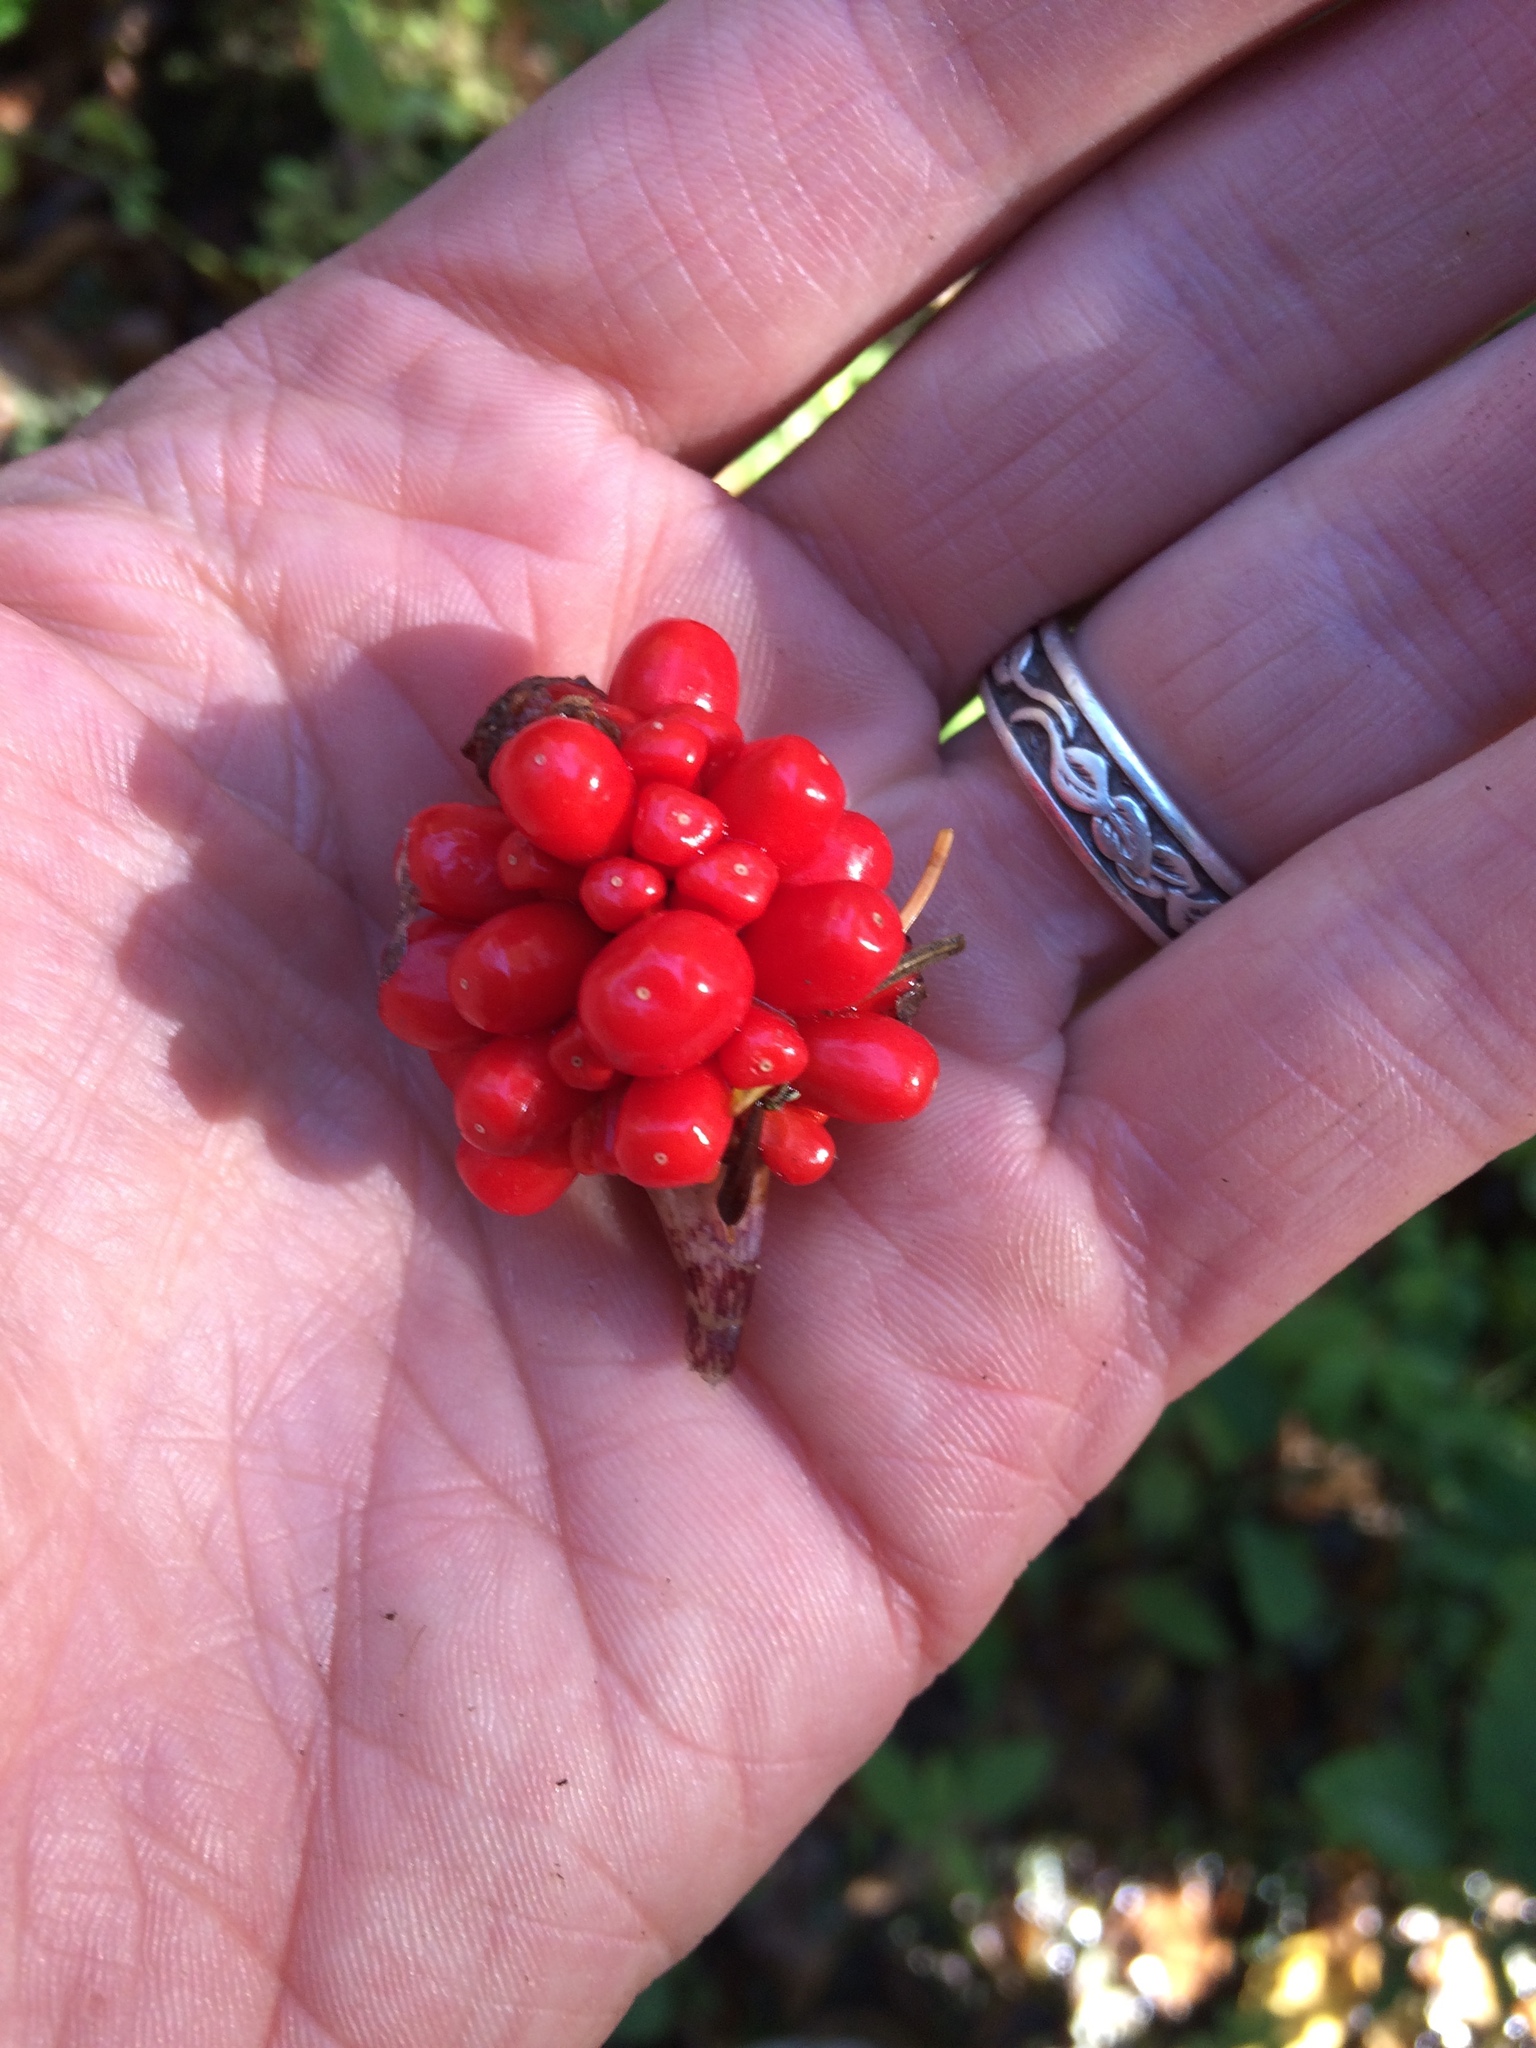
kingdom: Plantae
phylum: Tracheophyta
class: Liliopsida
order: Alismatales
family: Araceae
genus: Arisaema
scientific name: Arisaema triphyllum
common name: Jack-in-the-pulpit
